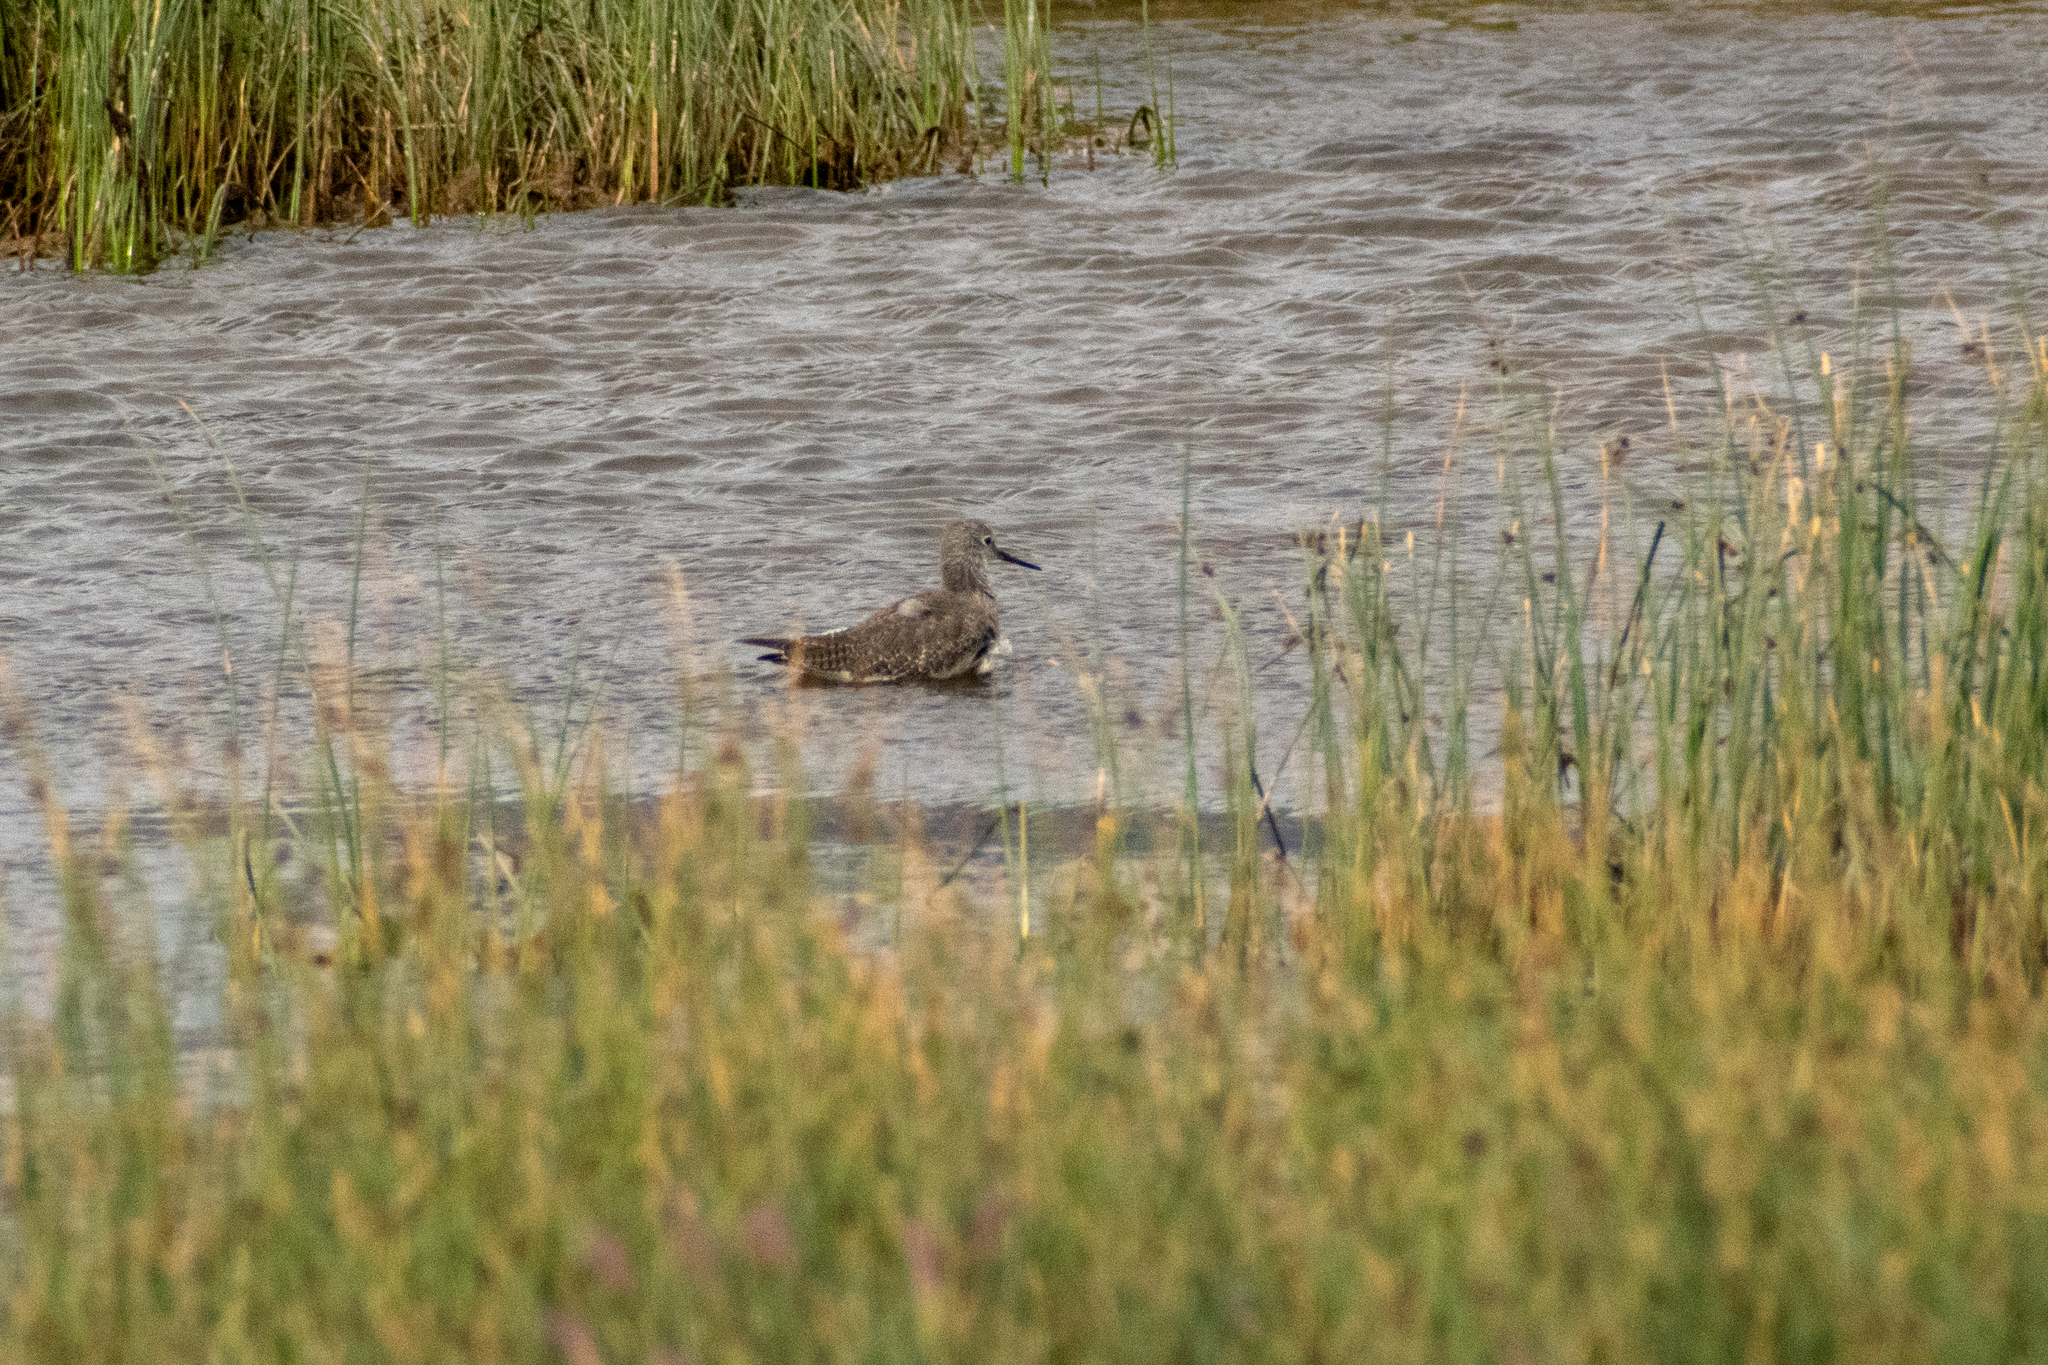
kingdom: Animalia
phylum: Chordata
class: Aves
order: Charadriiformes
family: Scolopacidae
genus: Tringa
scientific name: Tringa flavipes
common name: Lesser yellowlegs
